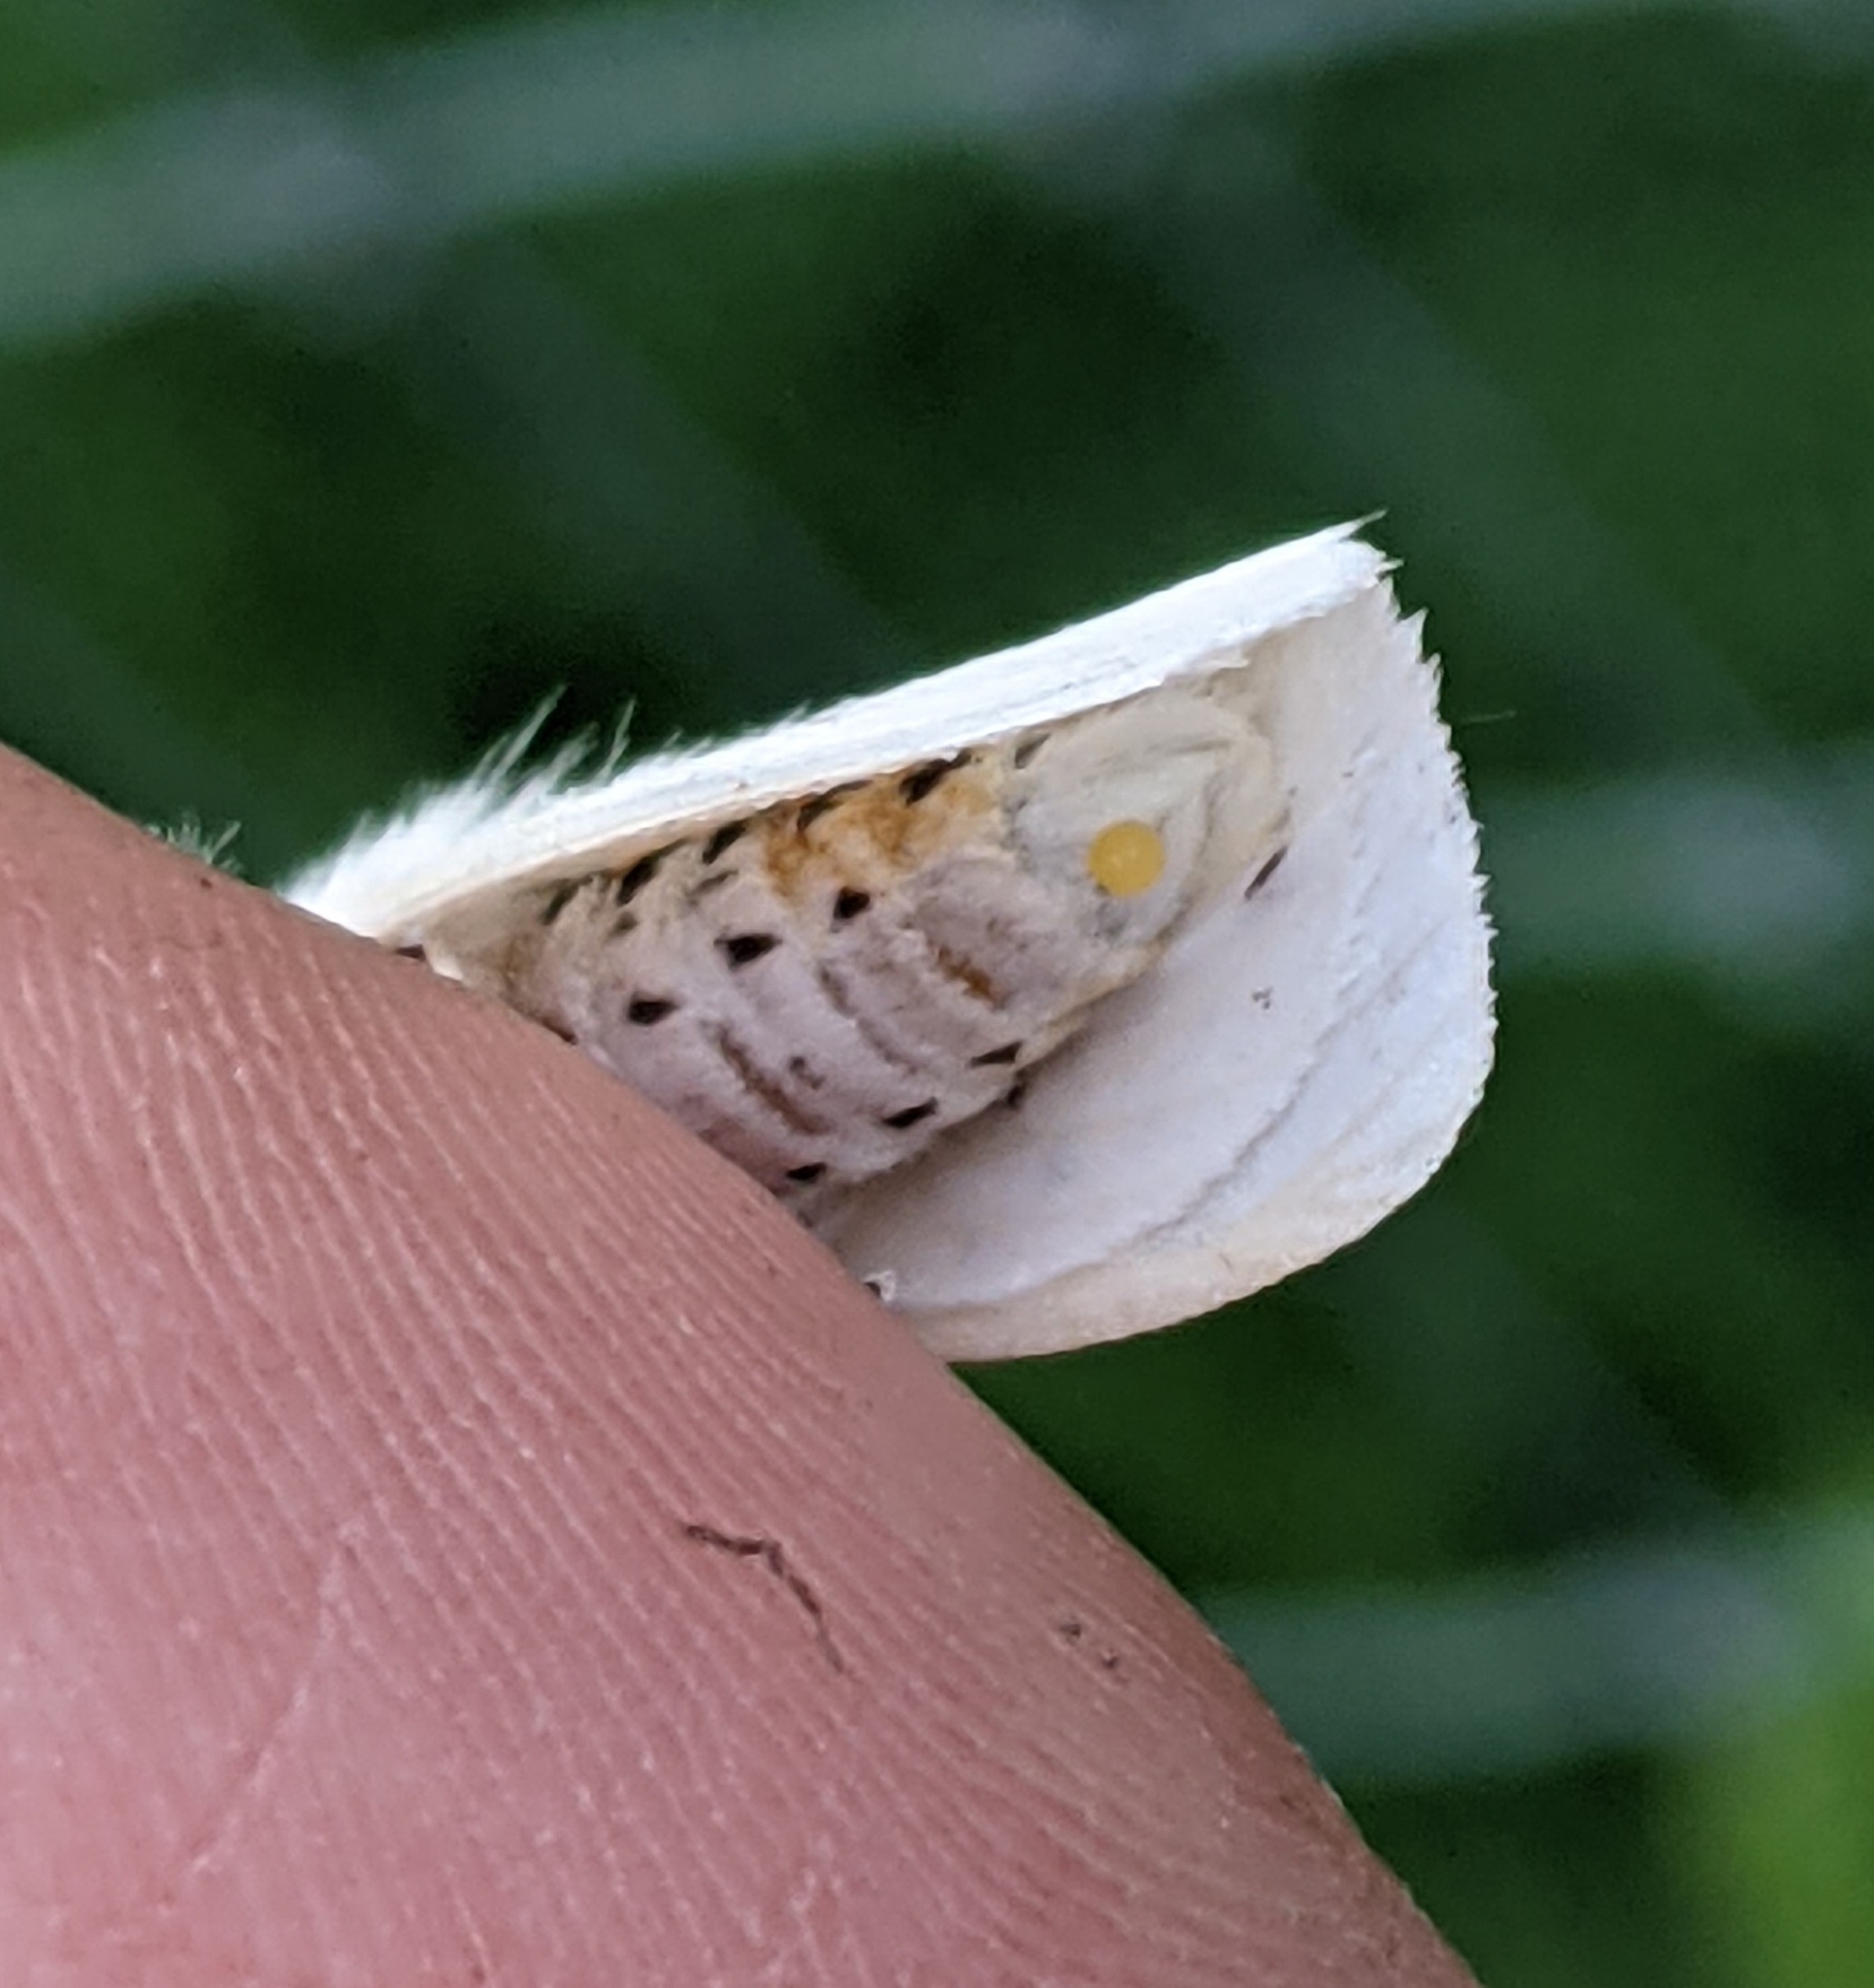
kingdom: Animalia
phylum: Arthropoda
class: Insecta
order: Lepidoptera
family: Erebidae
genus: Spilosoma
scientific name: Spilosoma virginica
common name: Virginia tiger moth
